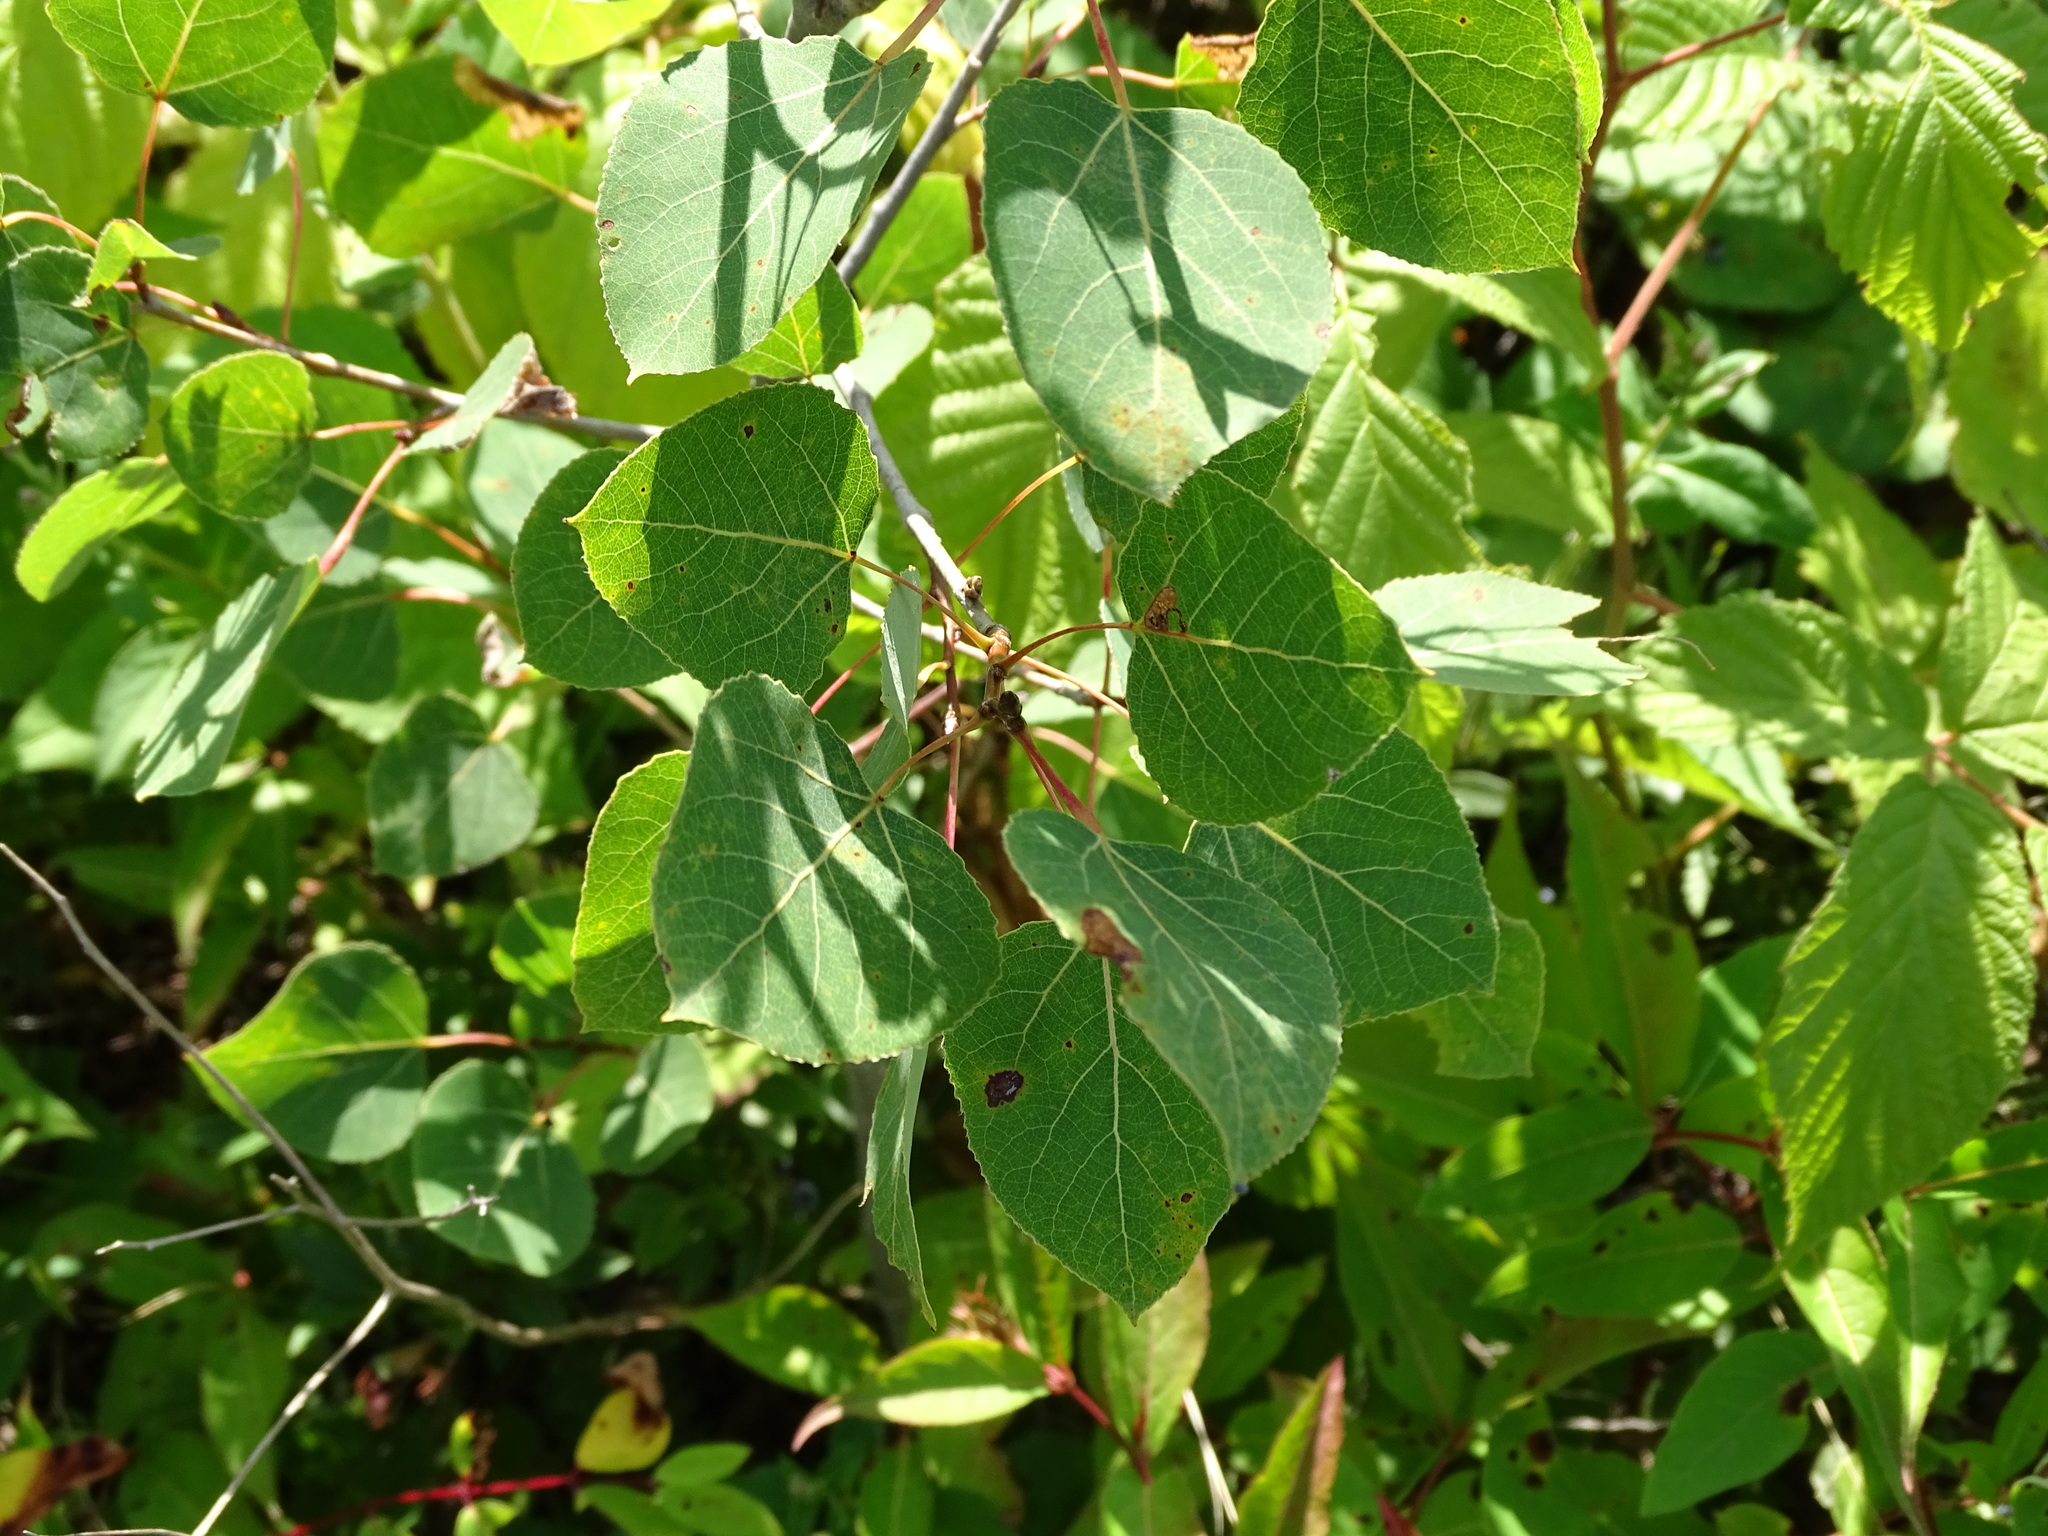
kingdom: Plantae
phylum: Tracheophyta
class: Magnoliopsida
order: Malpighiales
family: Salicaceae
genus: Populus
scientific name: Populus tremuloides
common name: Quaking aspen
